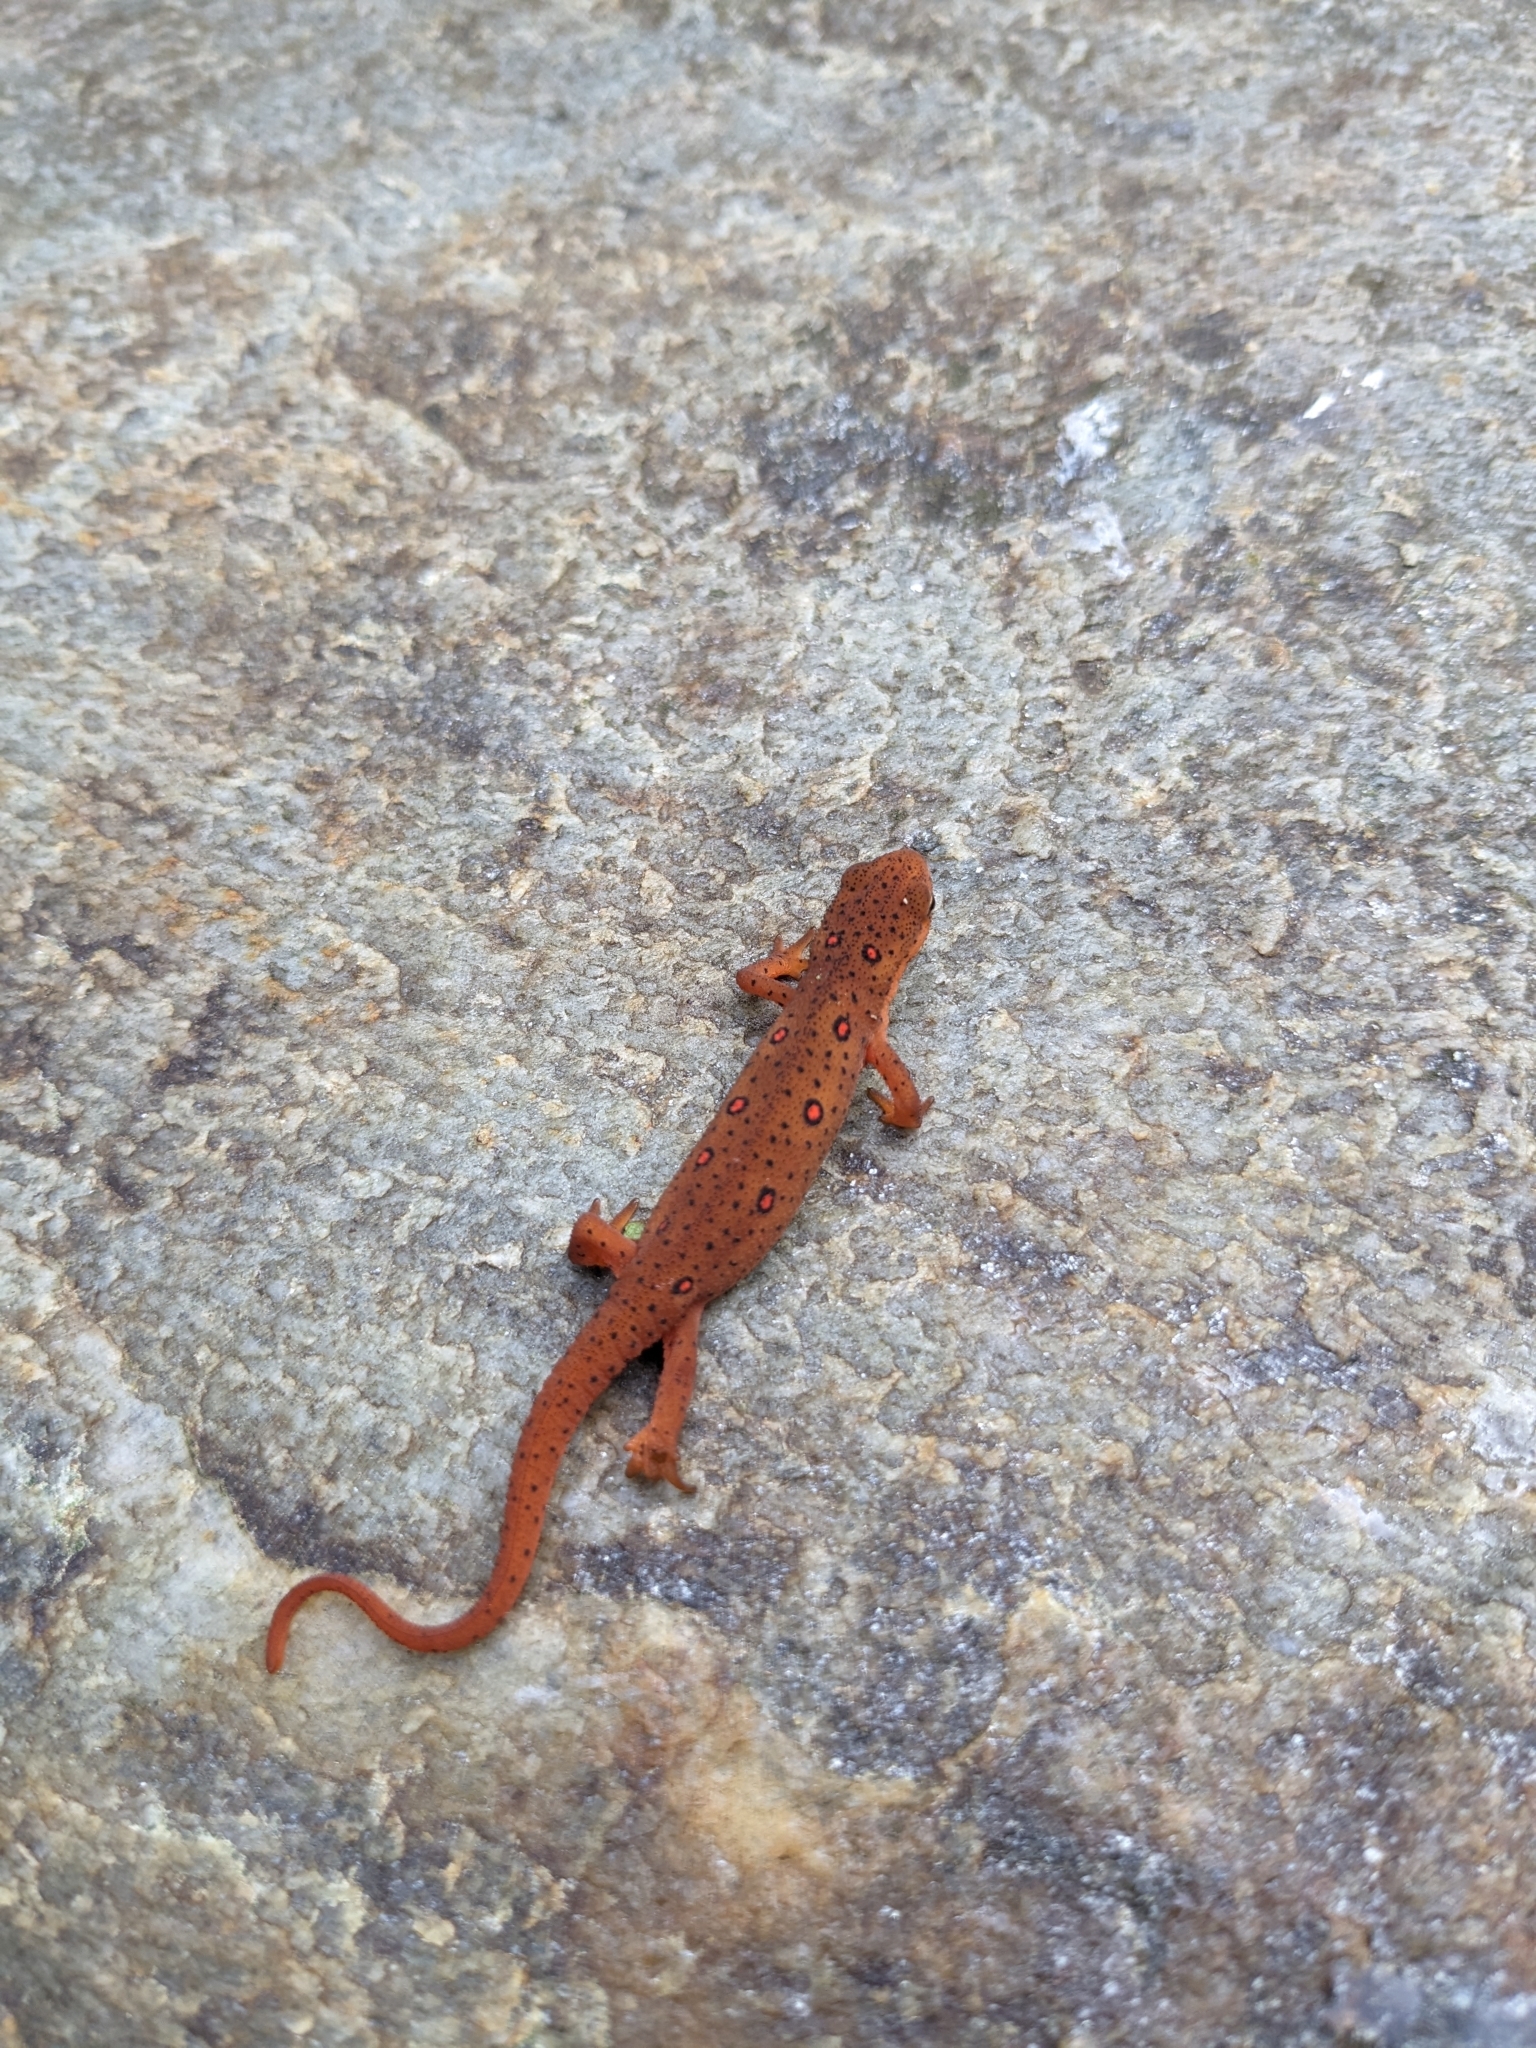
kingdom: Animalia
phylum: Chordata
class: Amphibia
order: Caudata
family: Salamandridae
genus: Notophthalmus
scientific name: Notophthalmus viridescens
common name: Eastern newt
